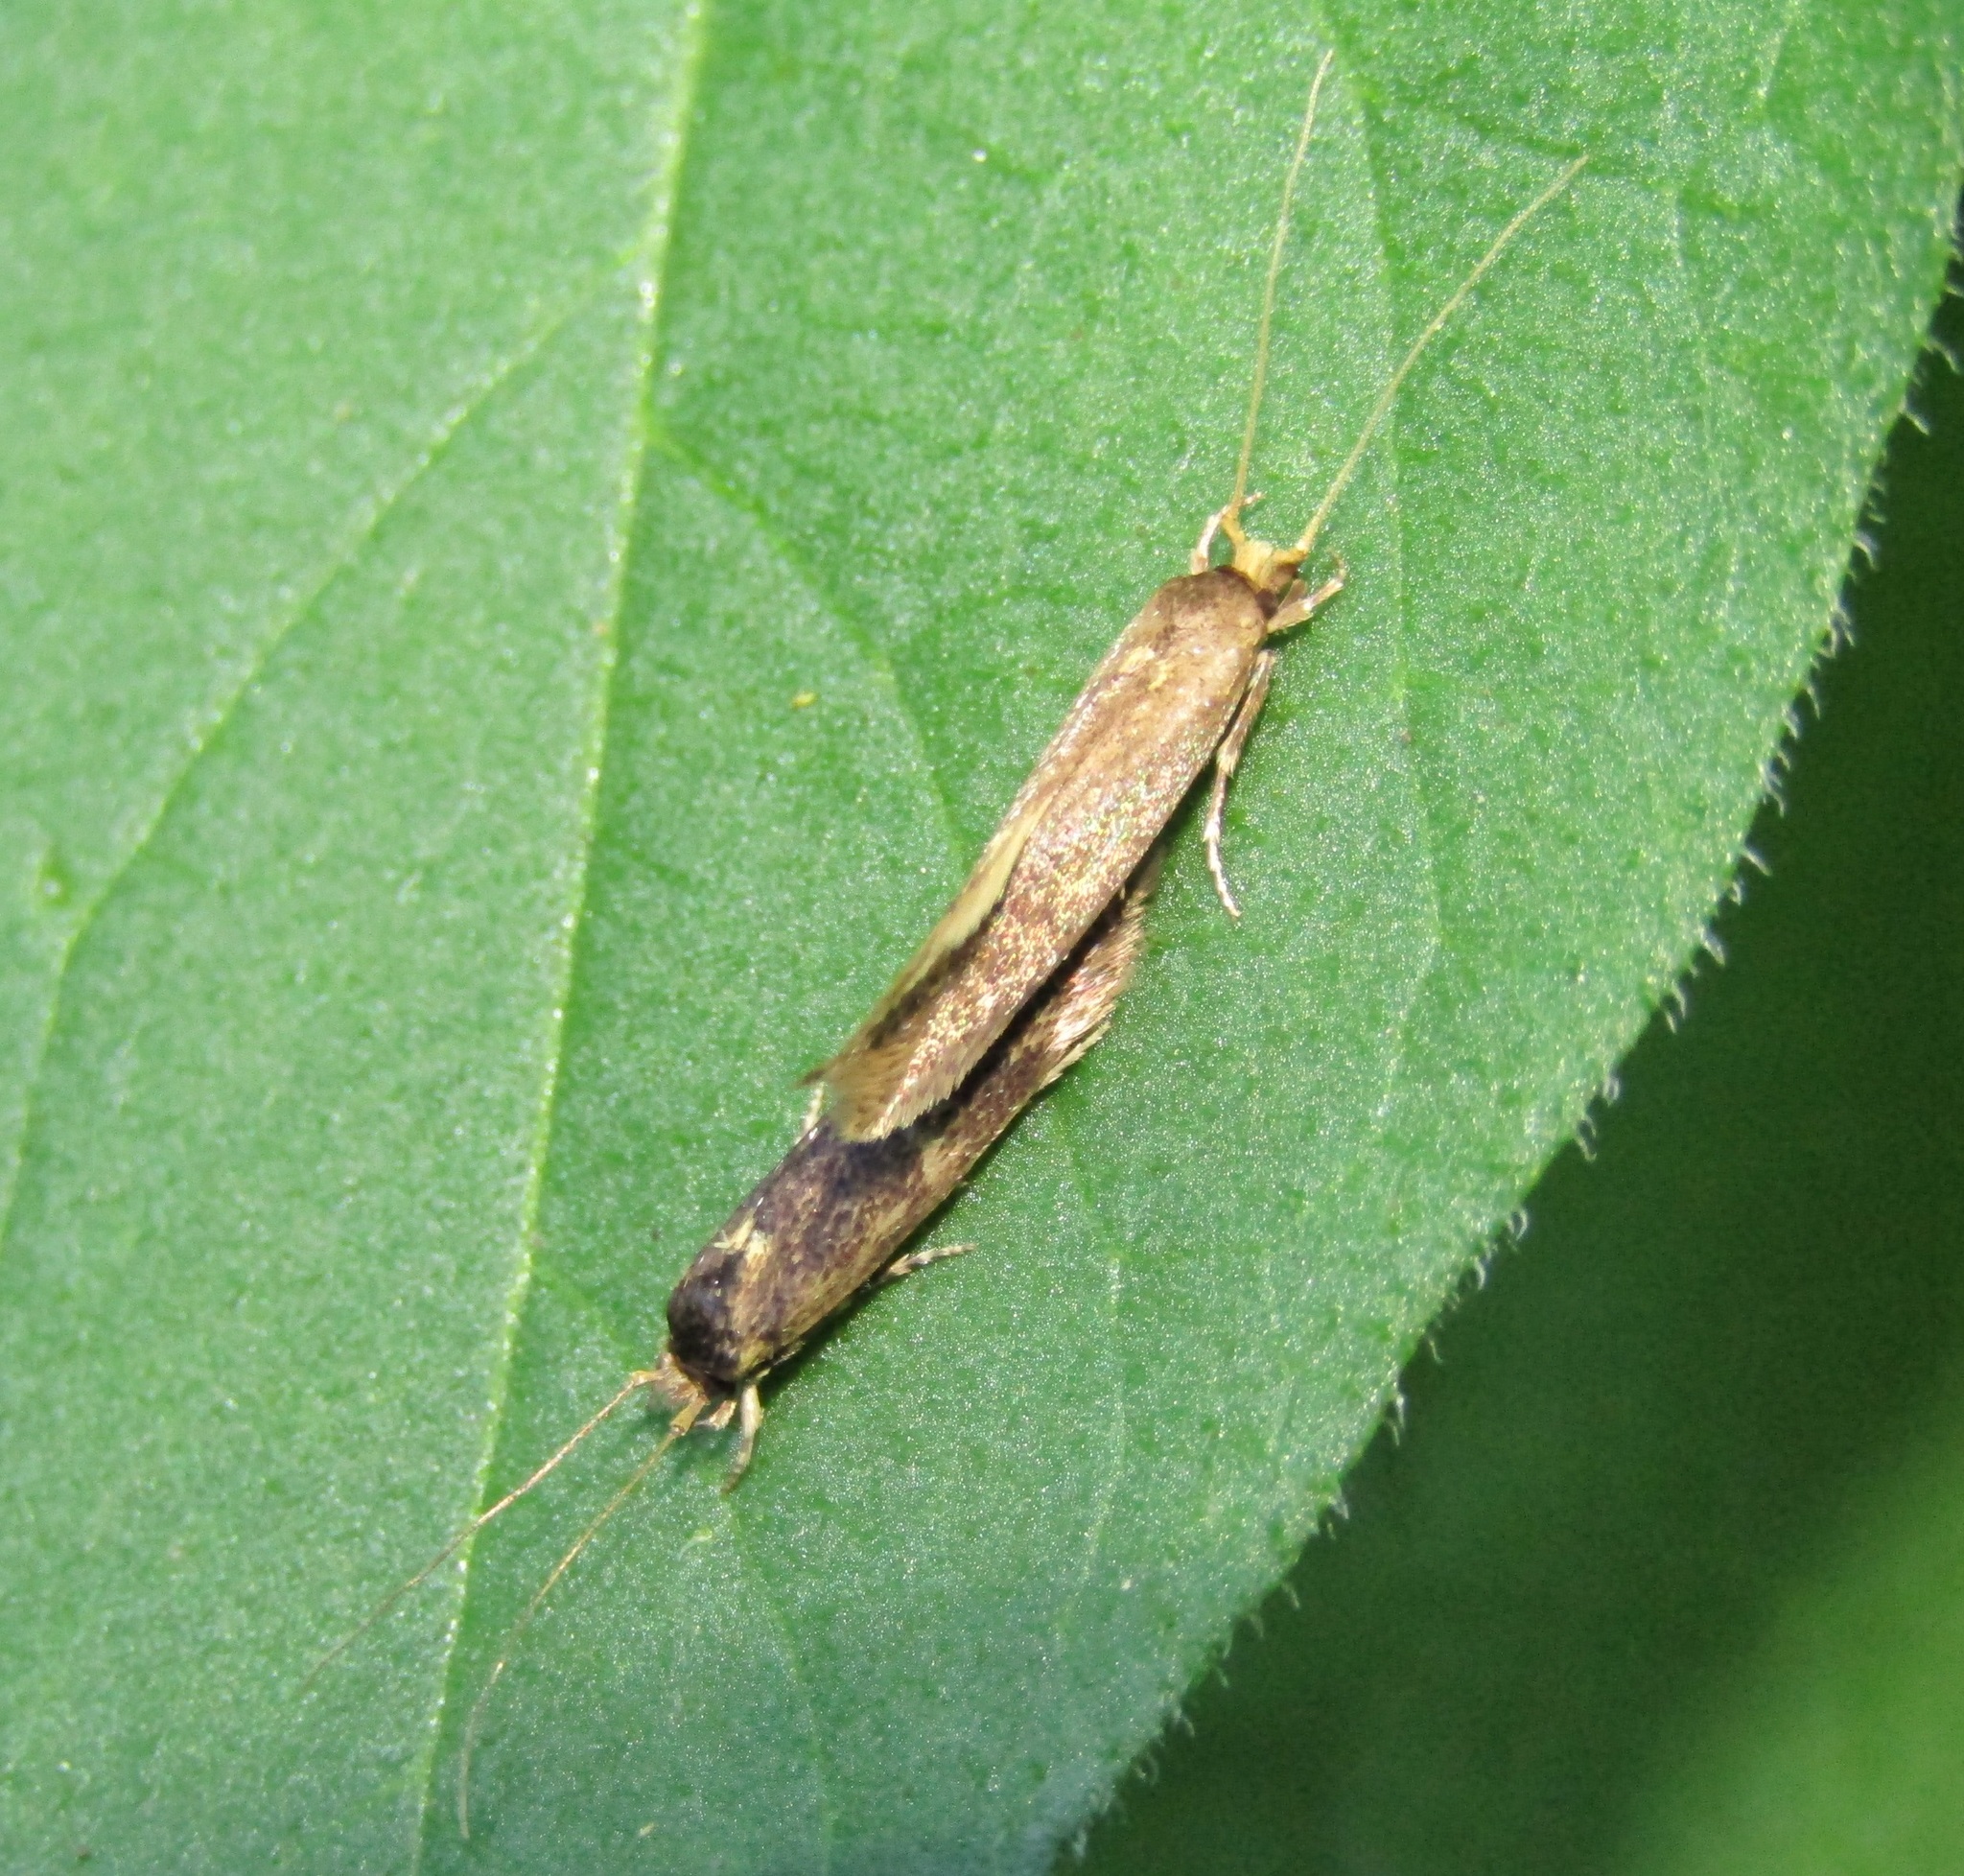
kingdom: Animalia
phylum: Arthropoda
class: Insecta
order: Lepidoptera
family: Tineidae
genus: Opogona
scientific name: Opogona omoscopa
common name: Moth
